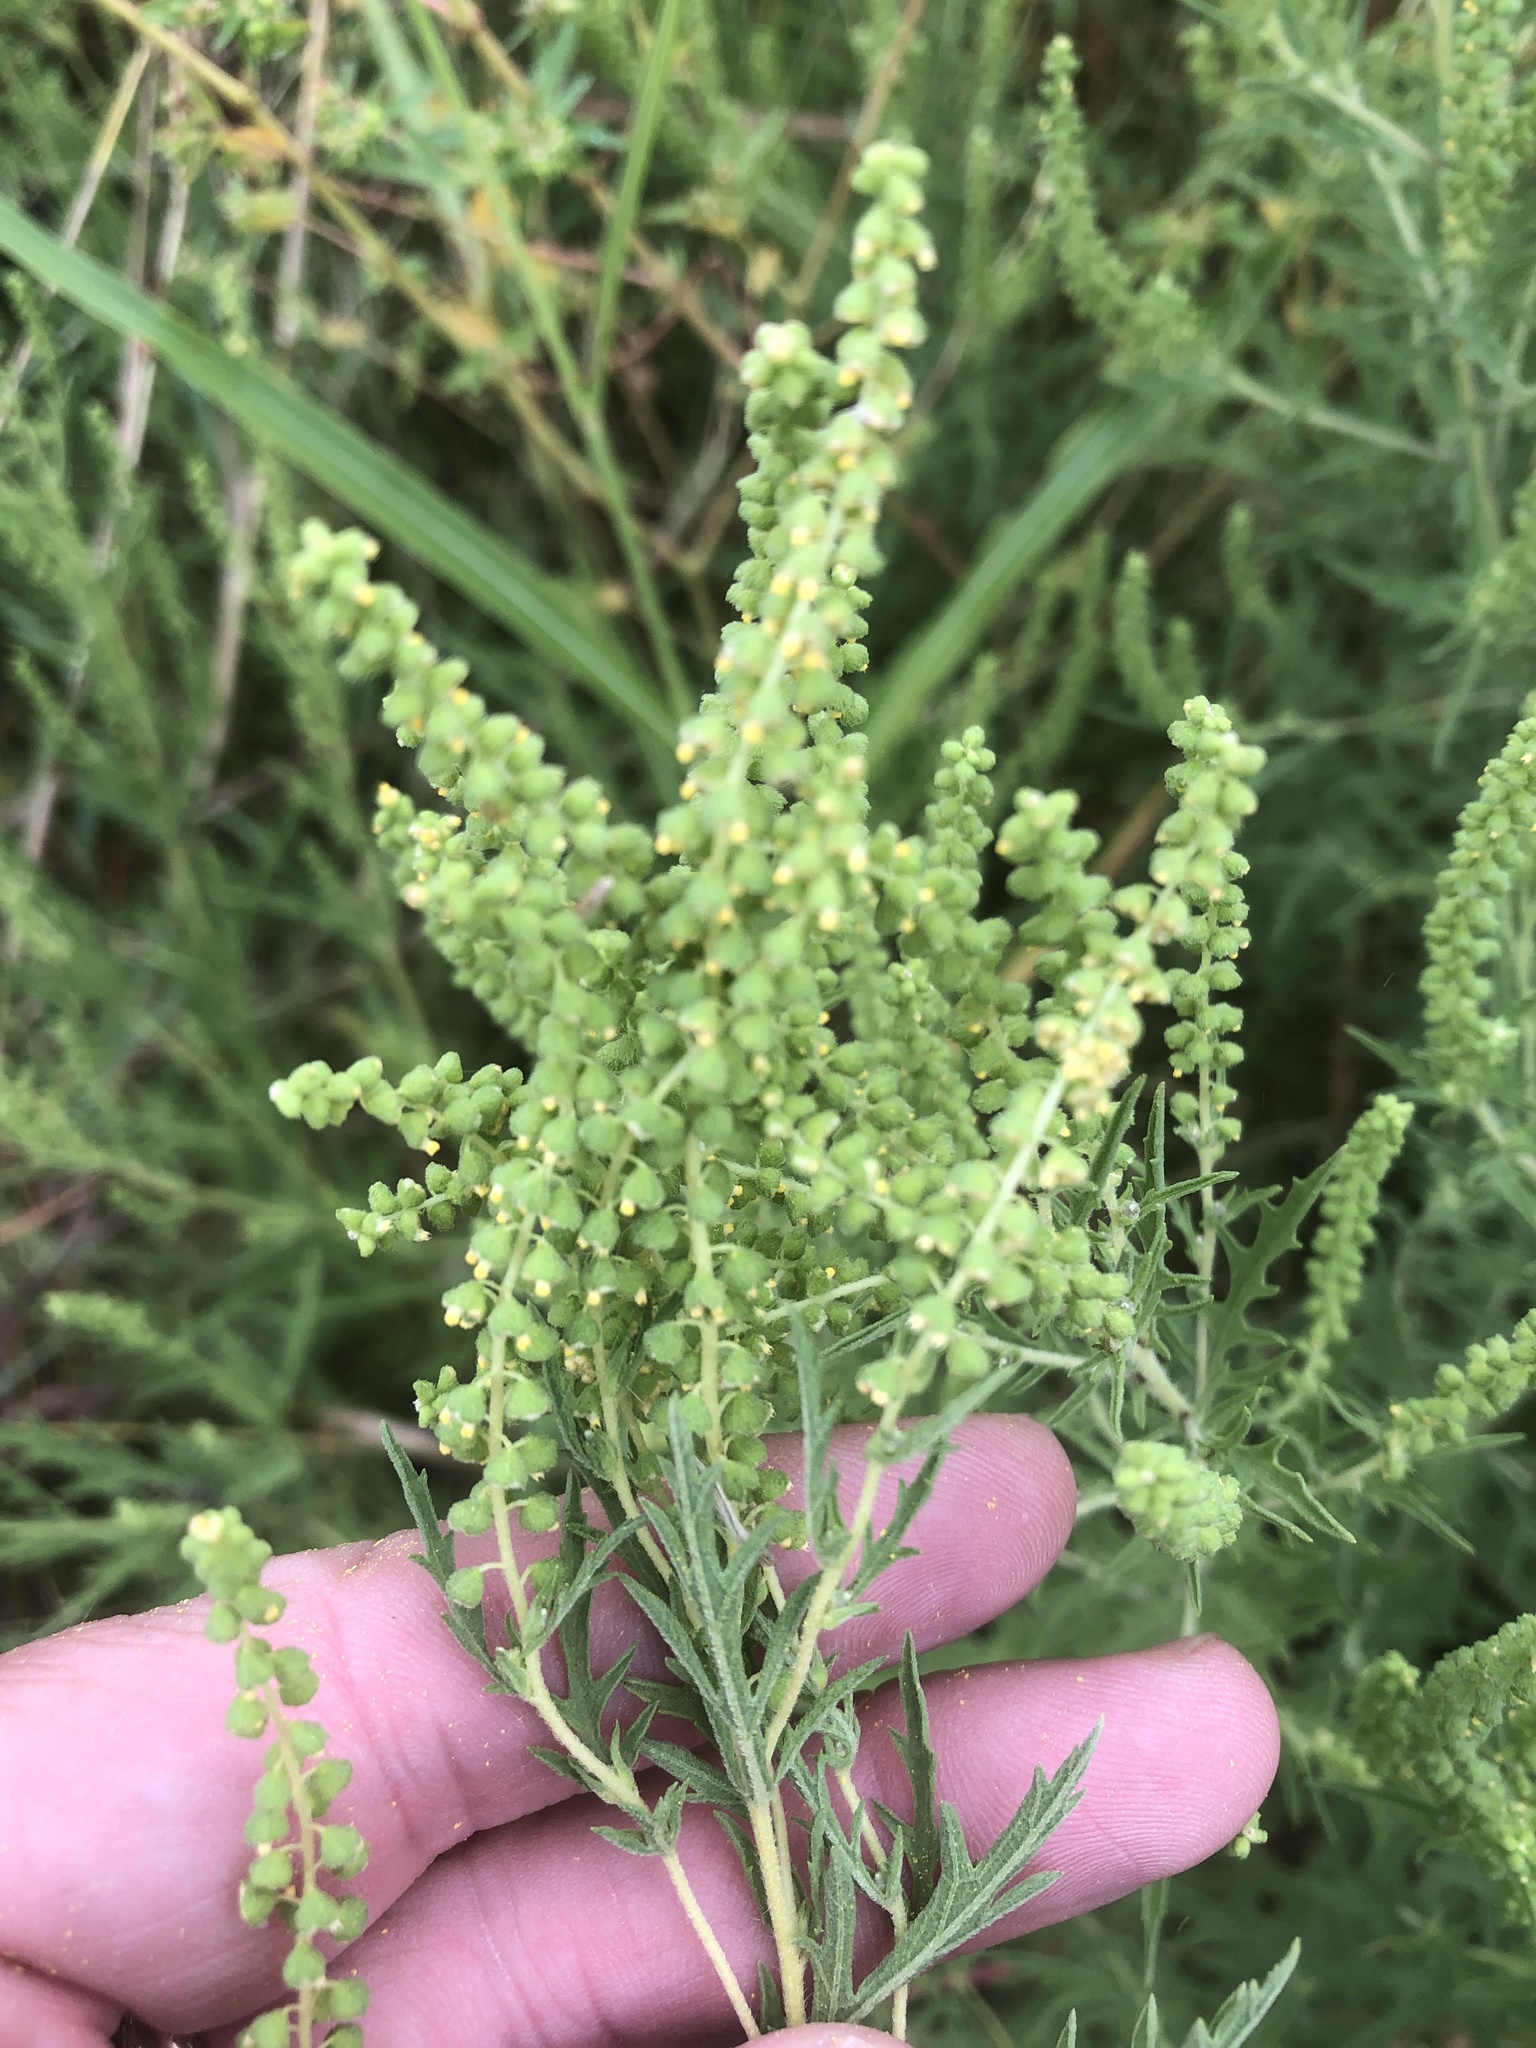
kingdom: Plantae
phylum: Tracheophyta
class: Magnoliopsida
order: Asterales
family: Asteraceae
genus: Ambrosia
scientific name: Ambrosia psilostachya
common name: Perennial ragweed
